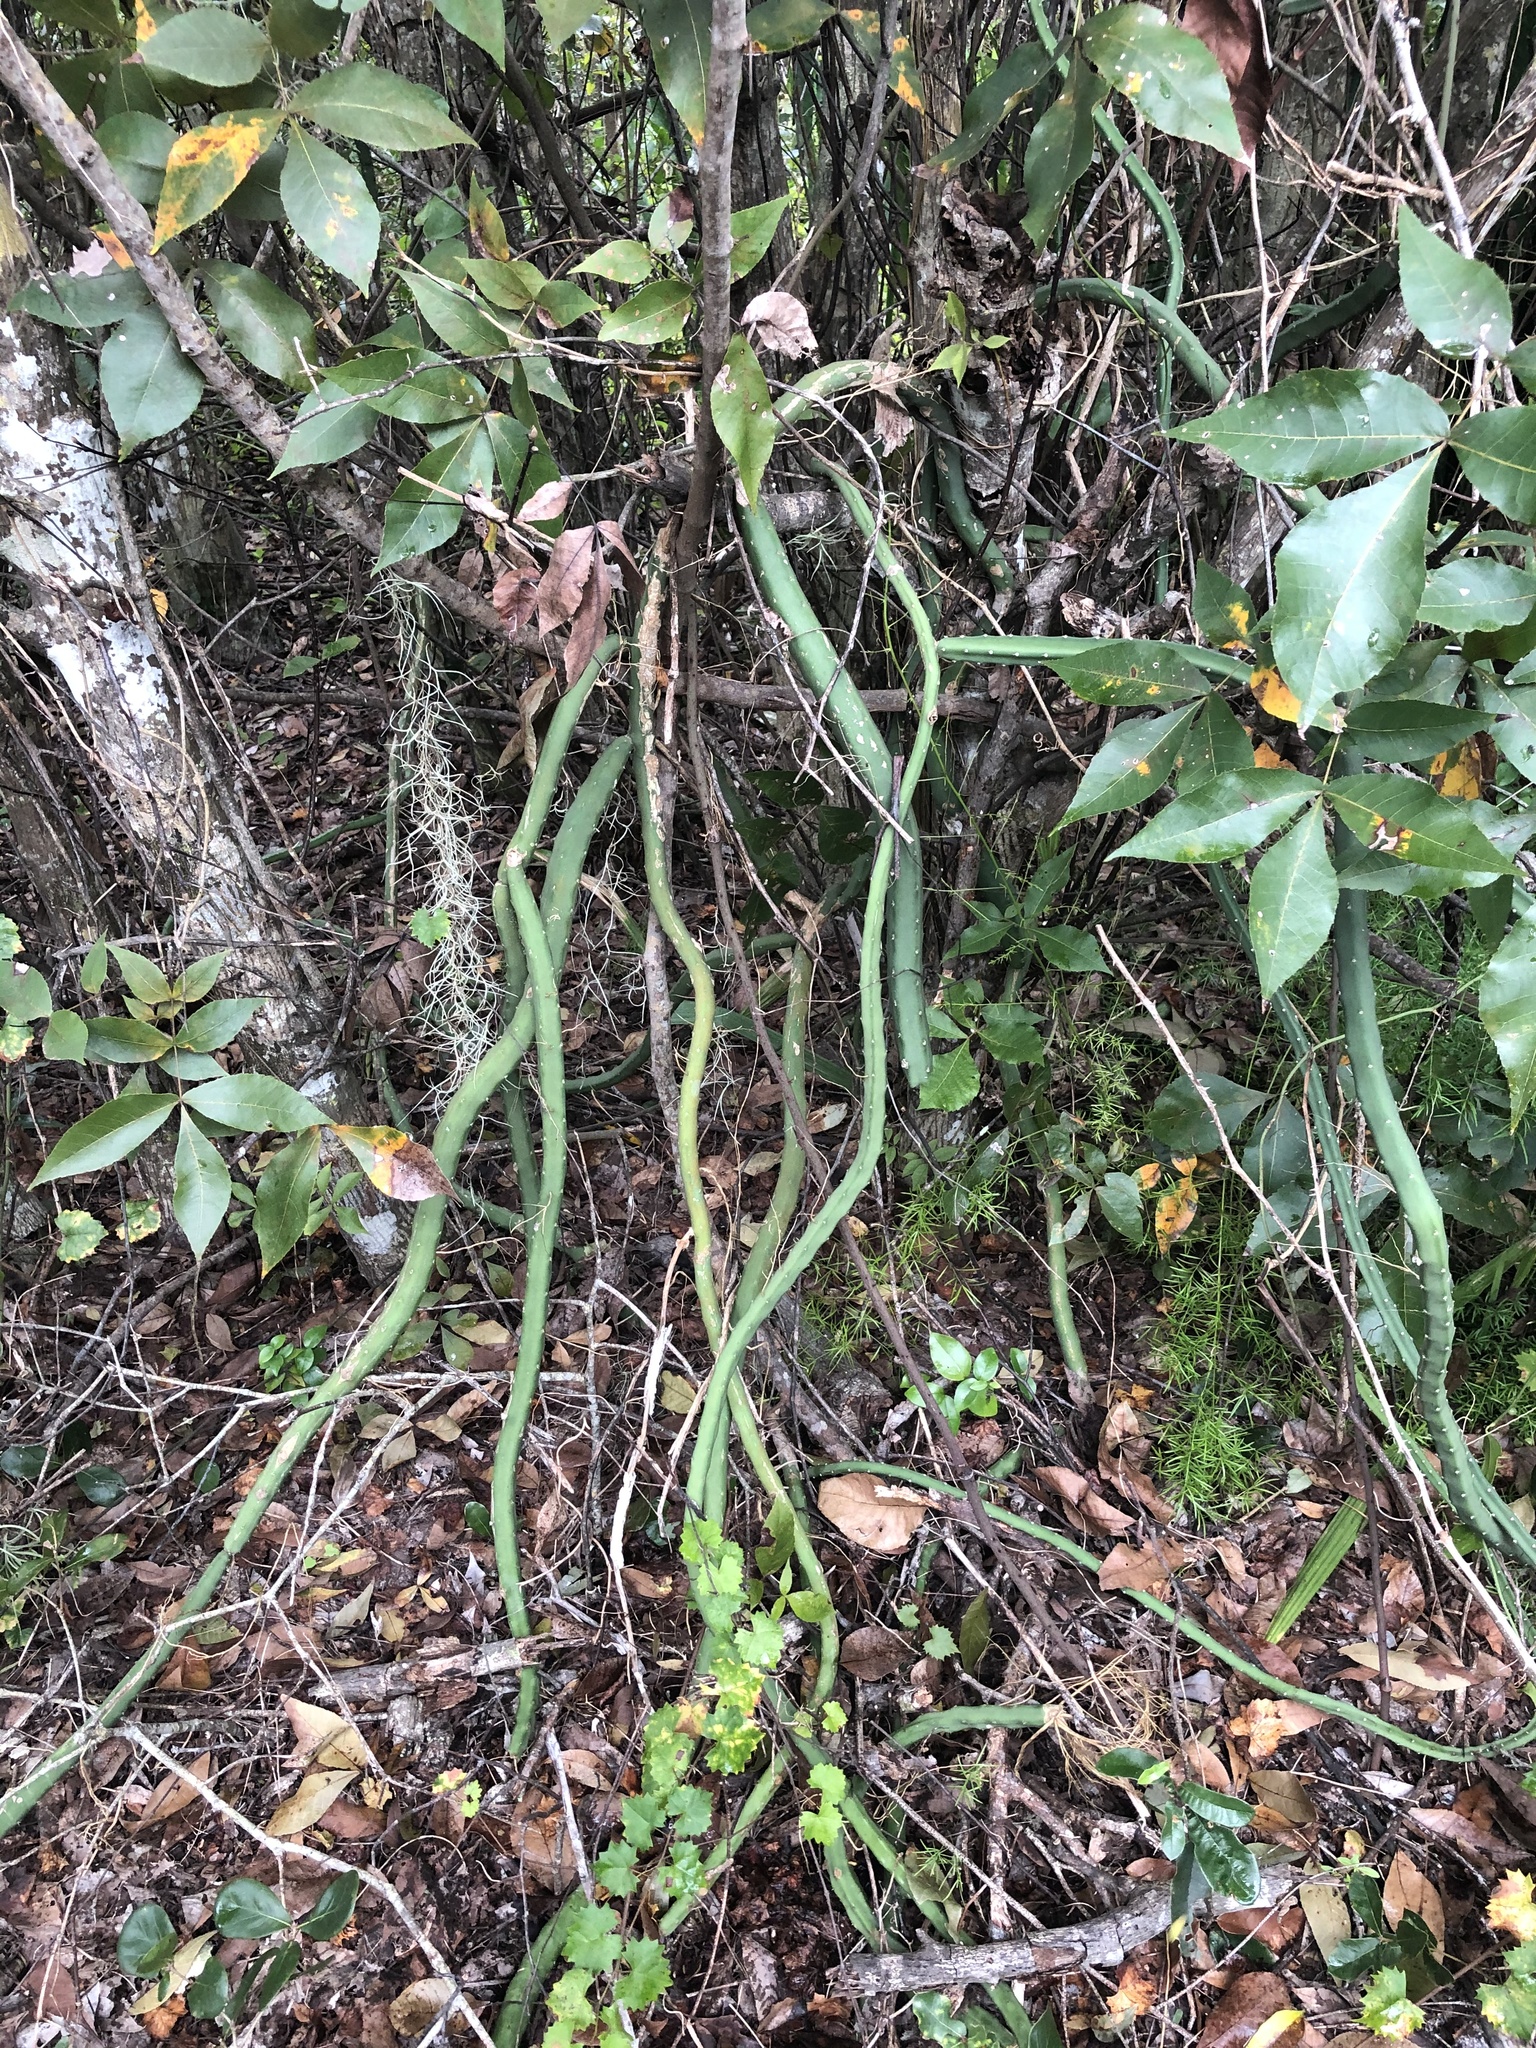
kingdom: Plantae
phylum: Tracheophyta
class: Magnoliopsida
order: Caryophyllales
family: Cactaceae
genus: Selenicereus
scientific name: Selenicereus pteranthus
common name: Princess of the night
